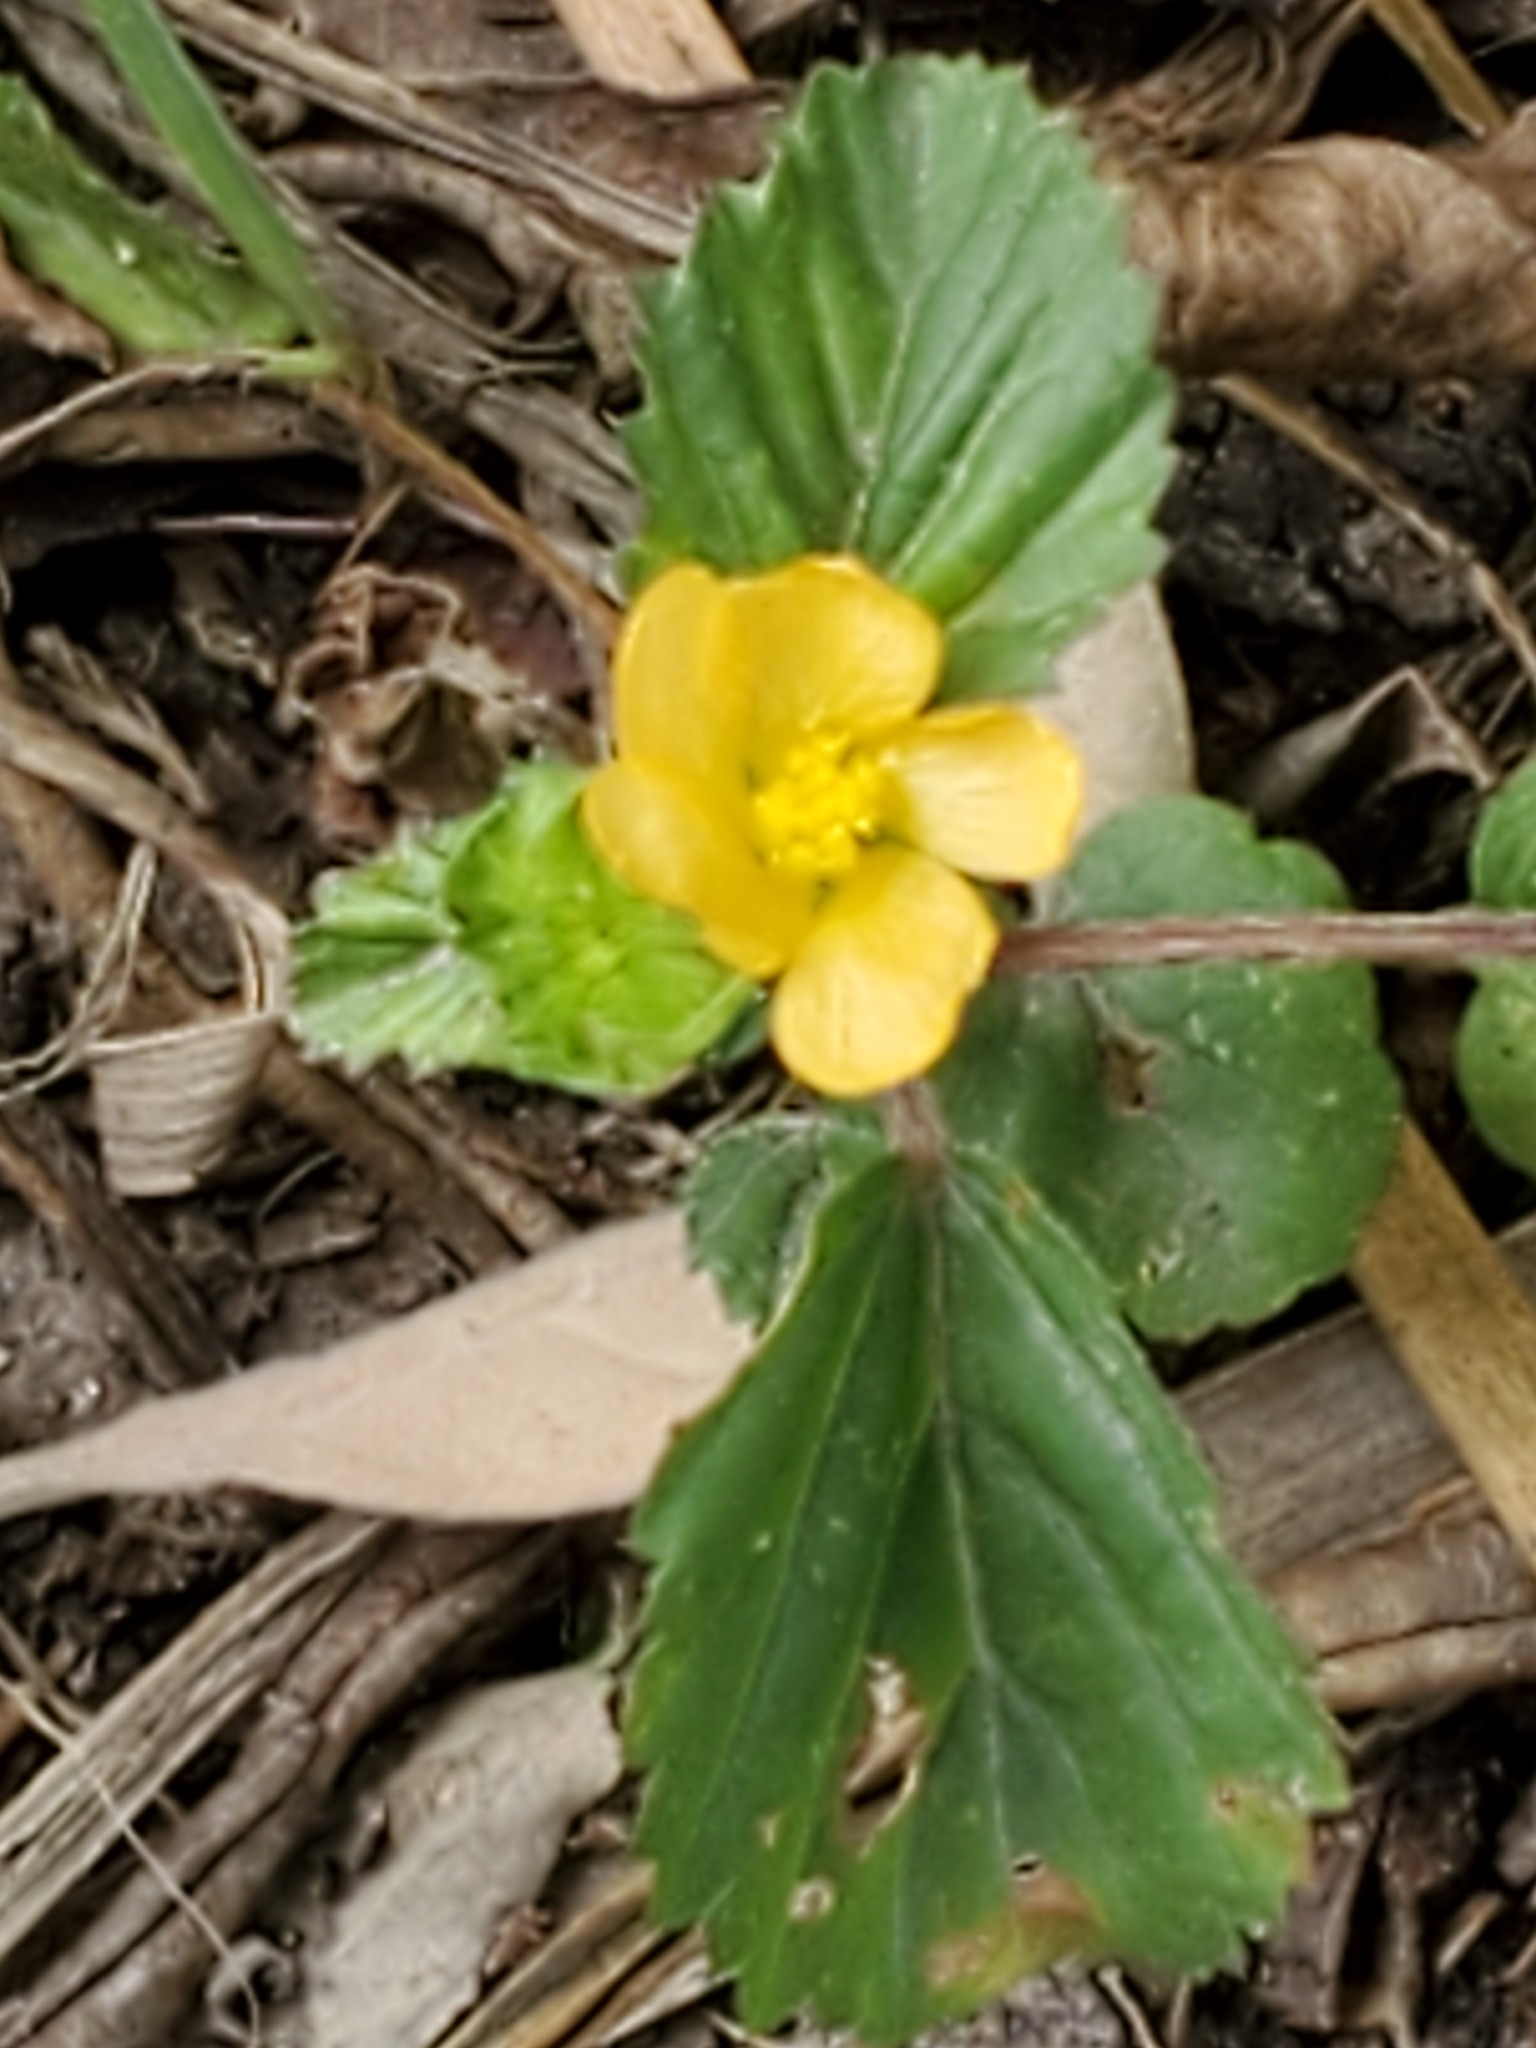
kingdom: Plantae
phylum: Tracheophyta
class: Magnoliopsida
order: Malvales
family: Malvaceae
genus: Malvastrum
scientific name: Malvastrum coromandelianum
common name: Threelobe false mallow
